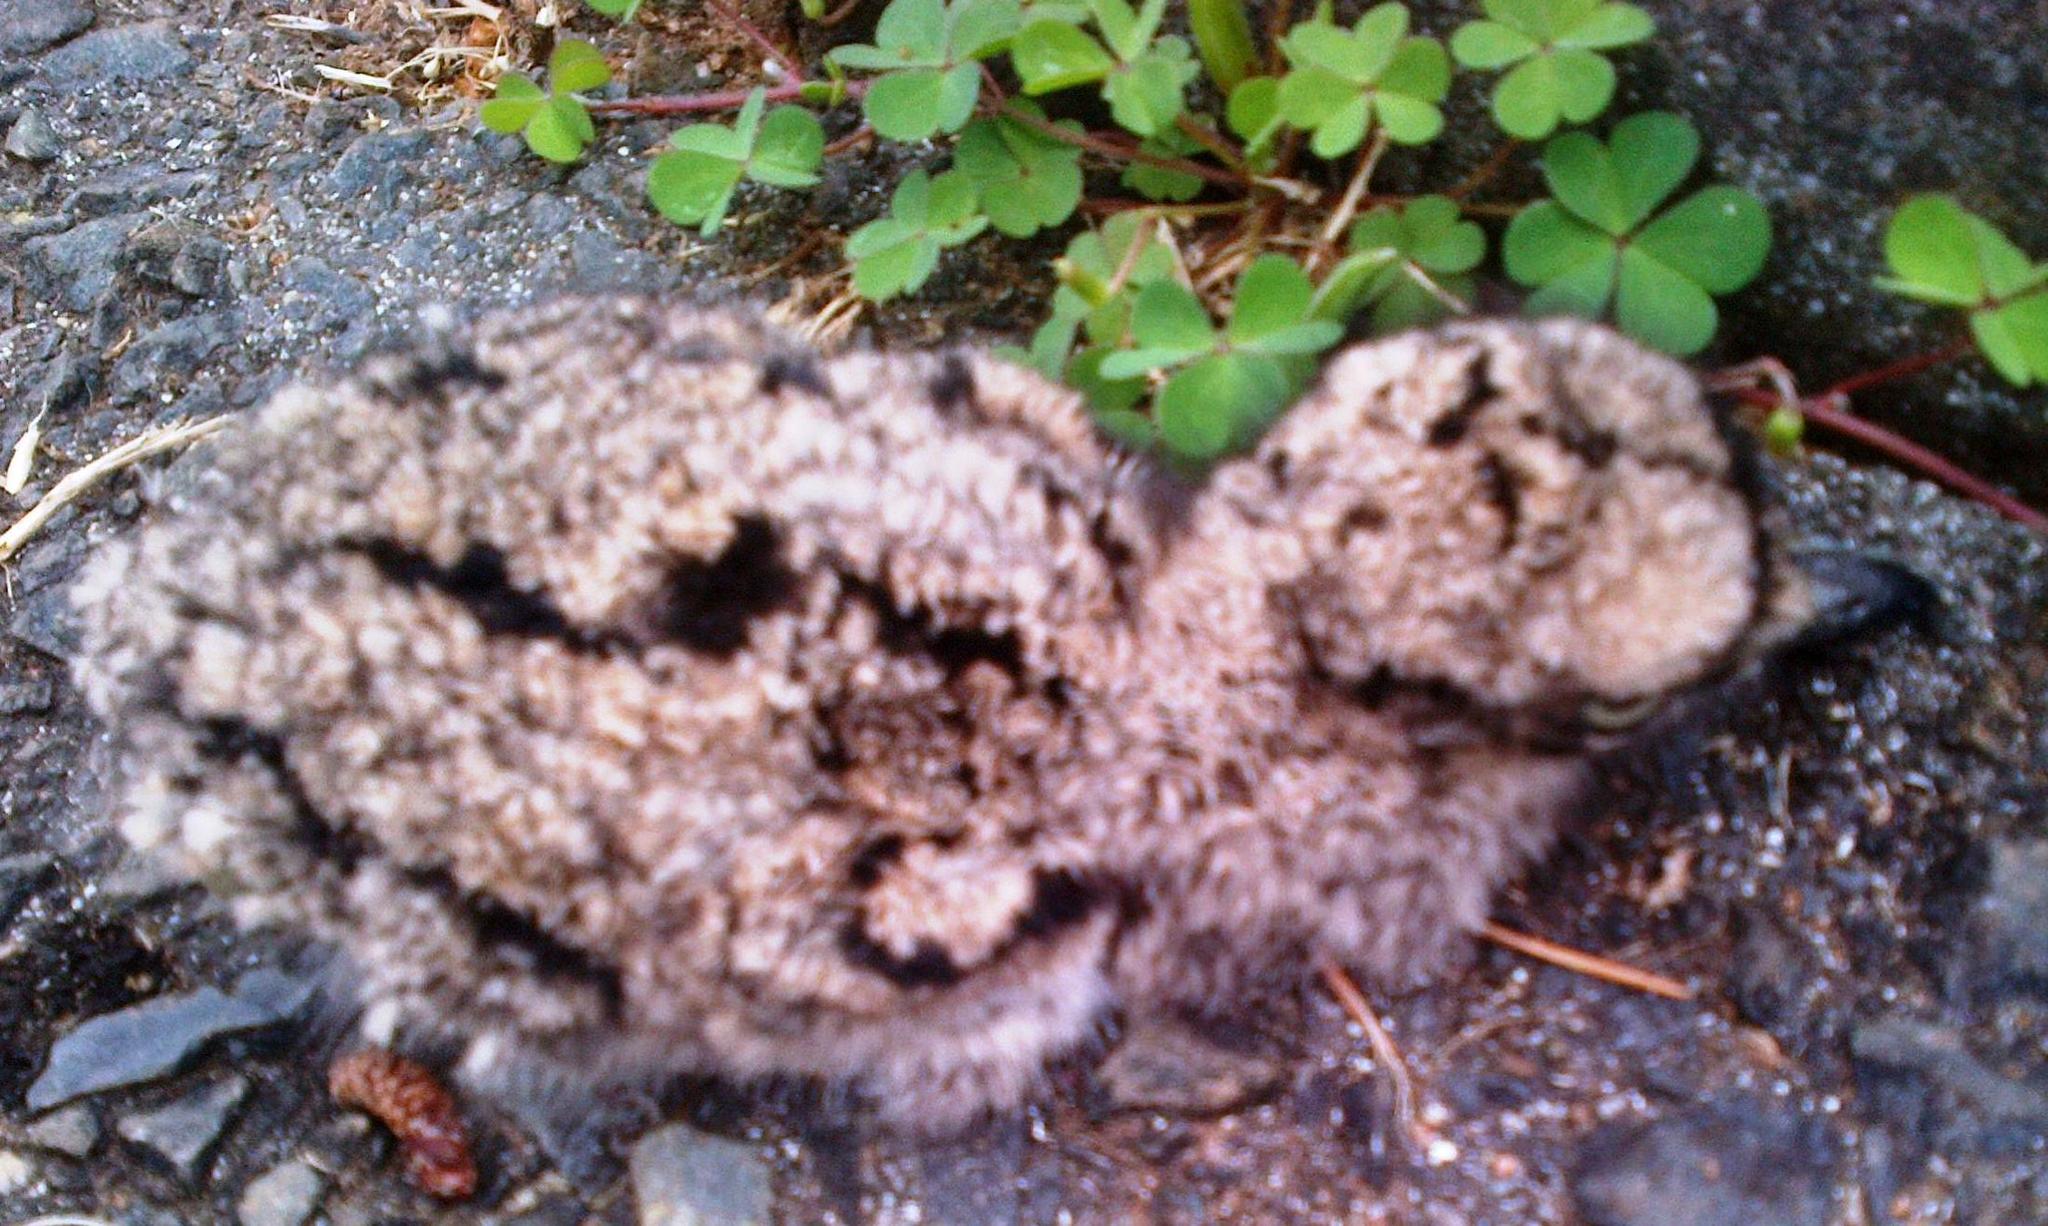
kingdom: Animalia
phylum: Chordata
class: Aves
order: Charadriiformes
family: Burhinidae
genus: Burhinus
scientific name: Burhinus capensis
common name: Spotted thick-knee
